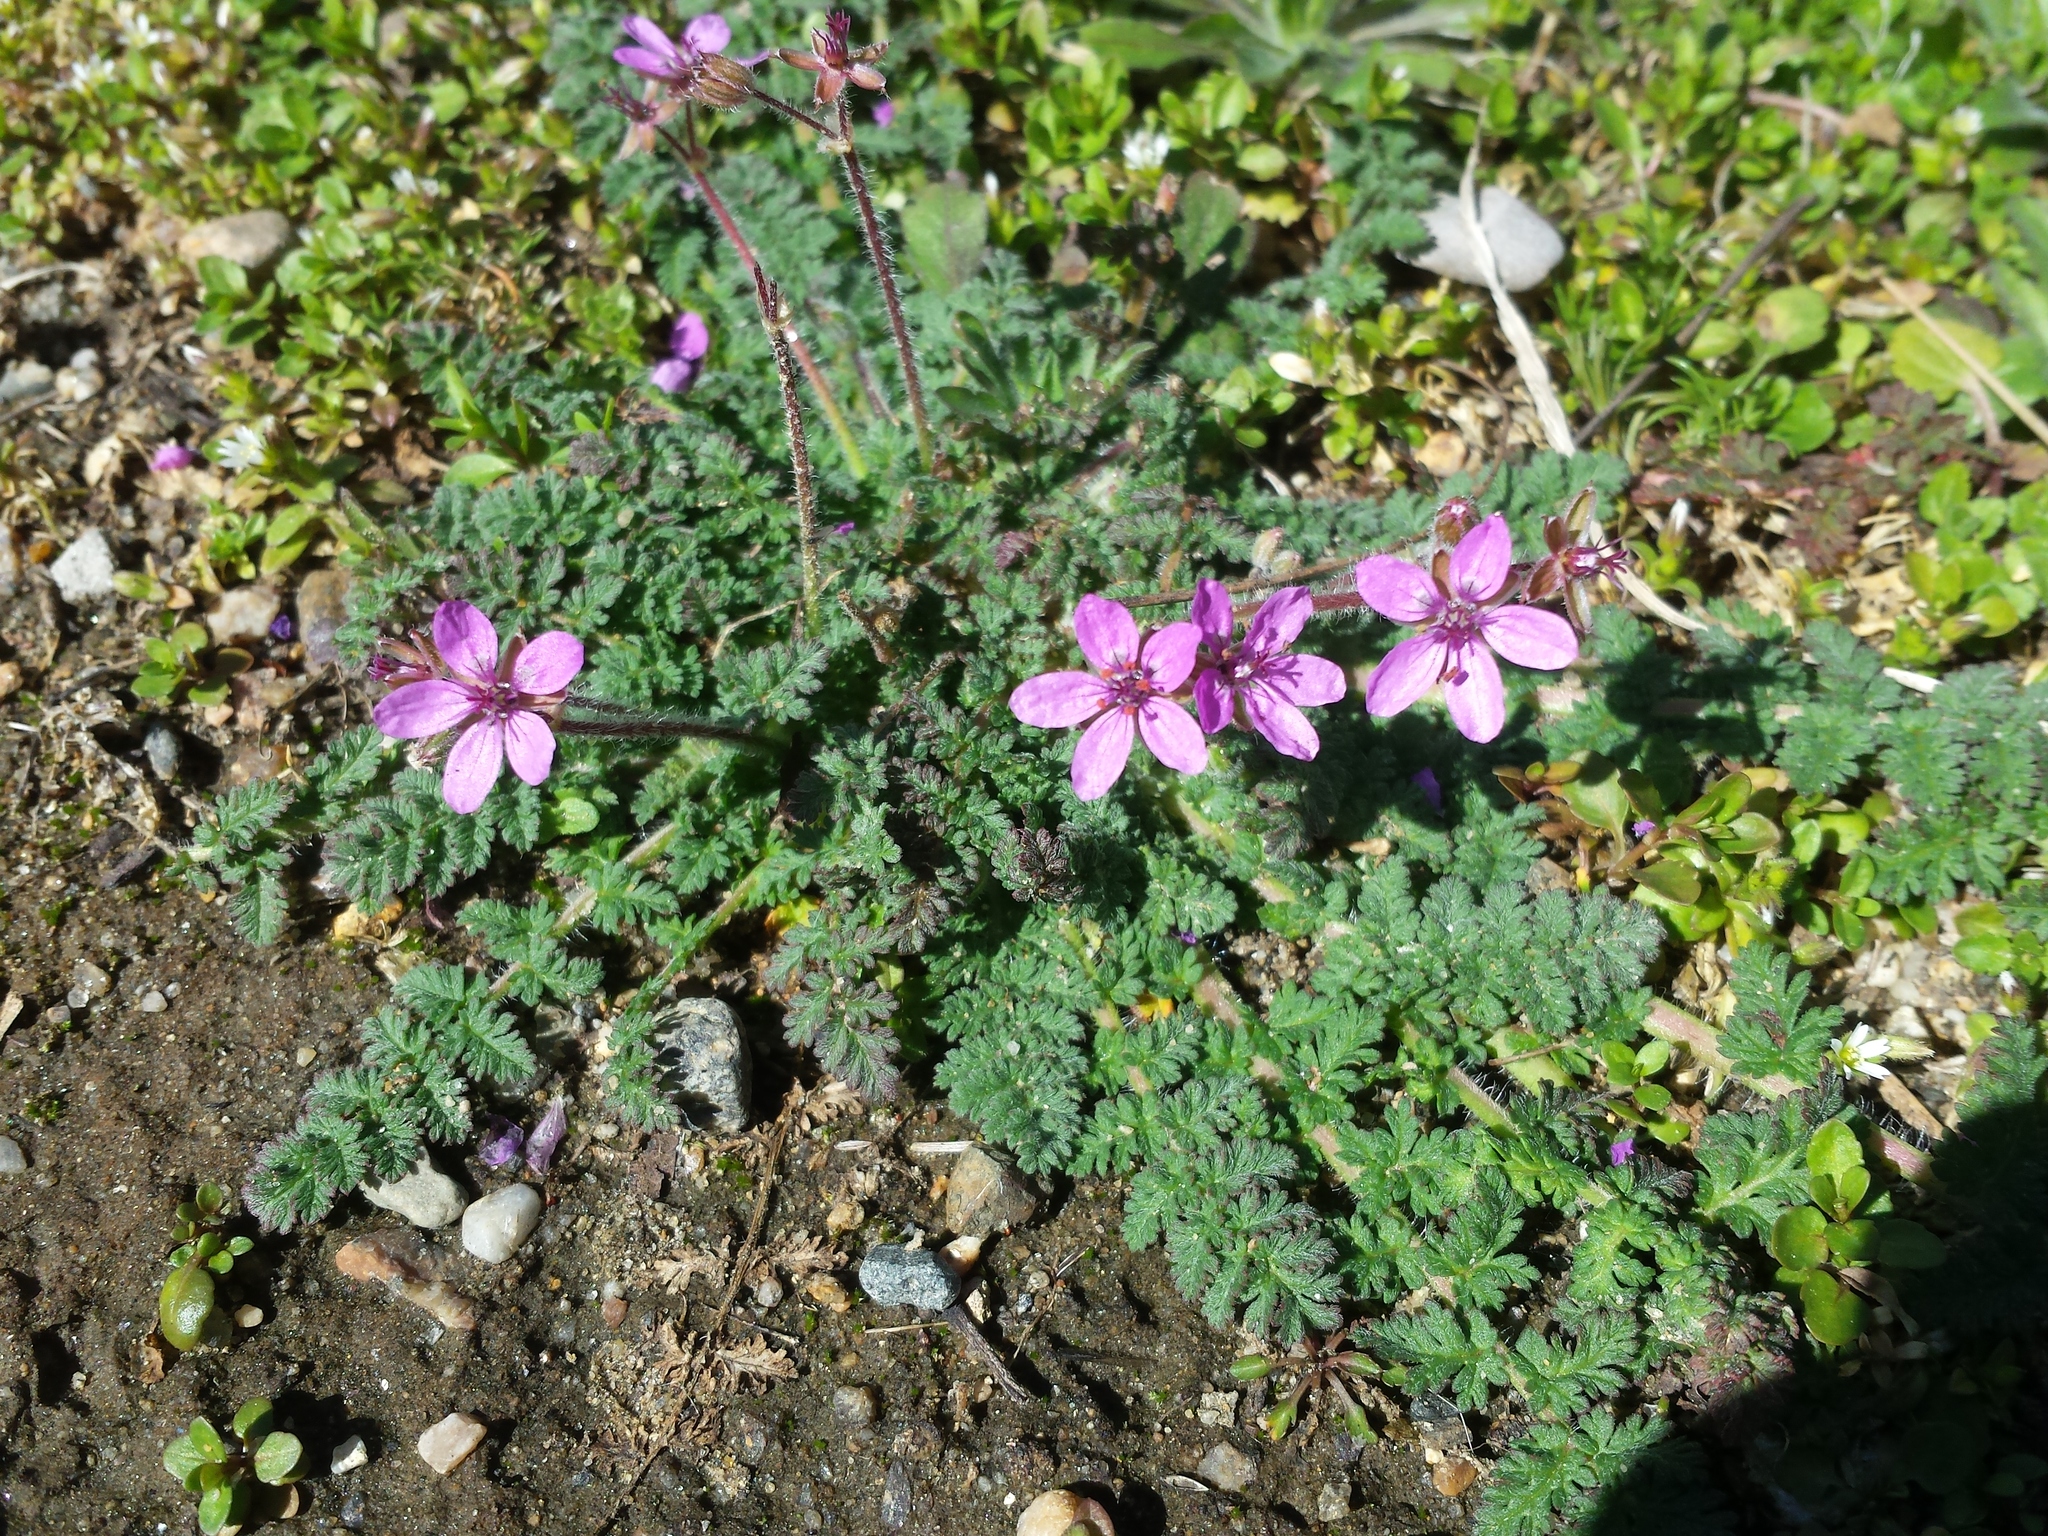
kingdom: Plantae
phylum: Tracheophyta
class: Magnoliopsida
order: Geraniales
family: Geraniaceae
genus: Erodium
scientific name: Erodium cicutarium
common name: Common stork's-bill
